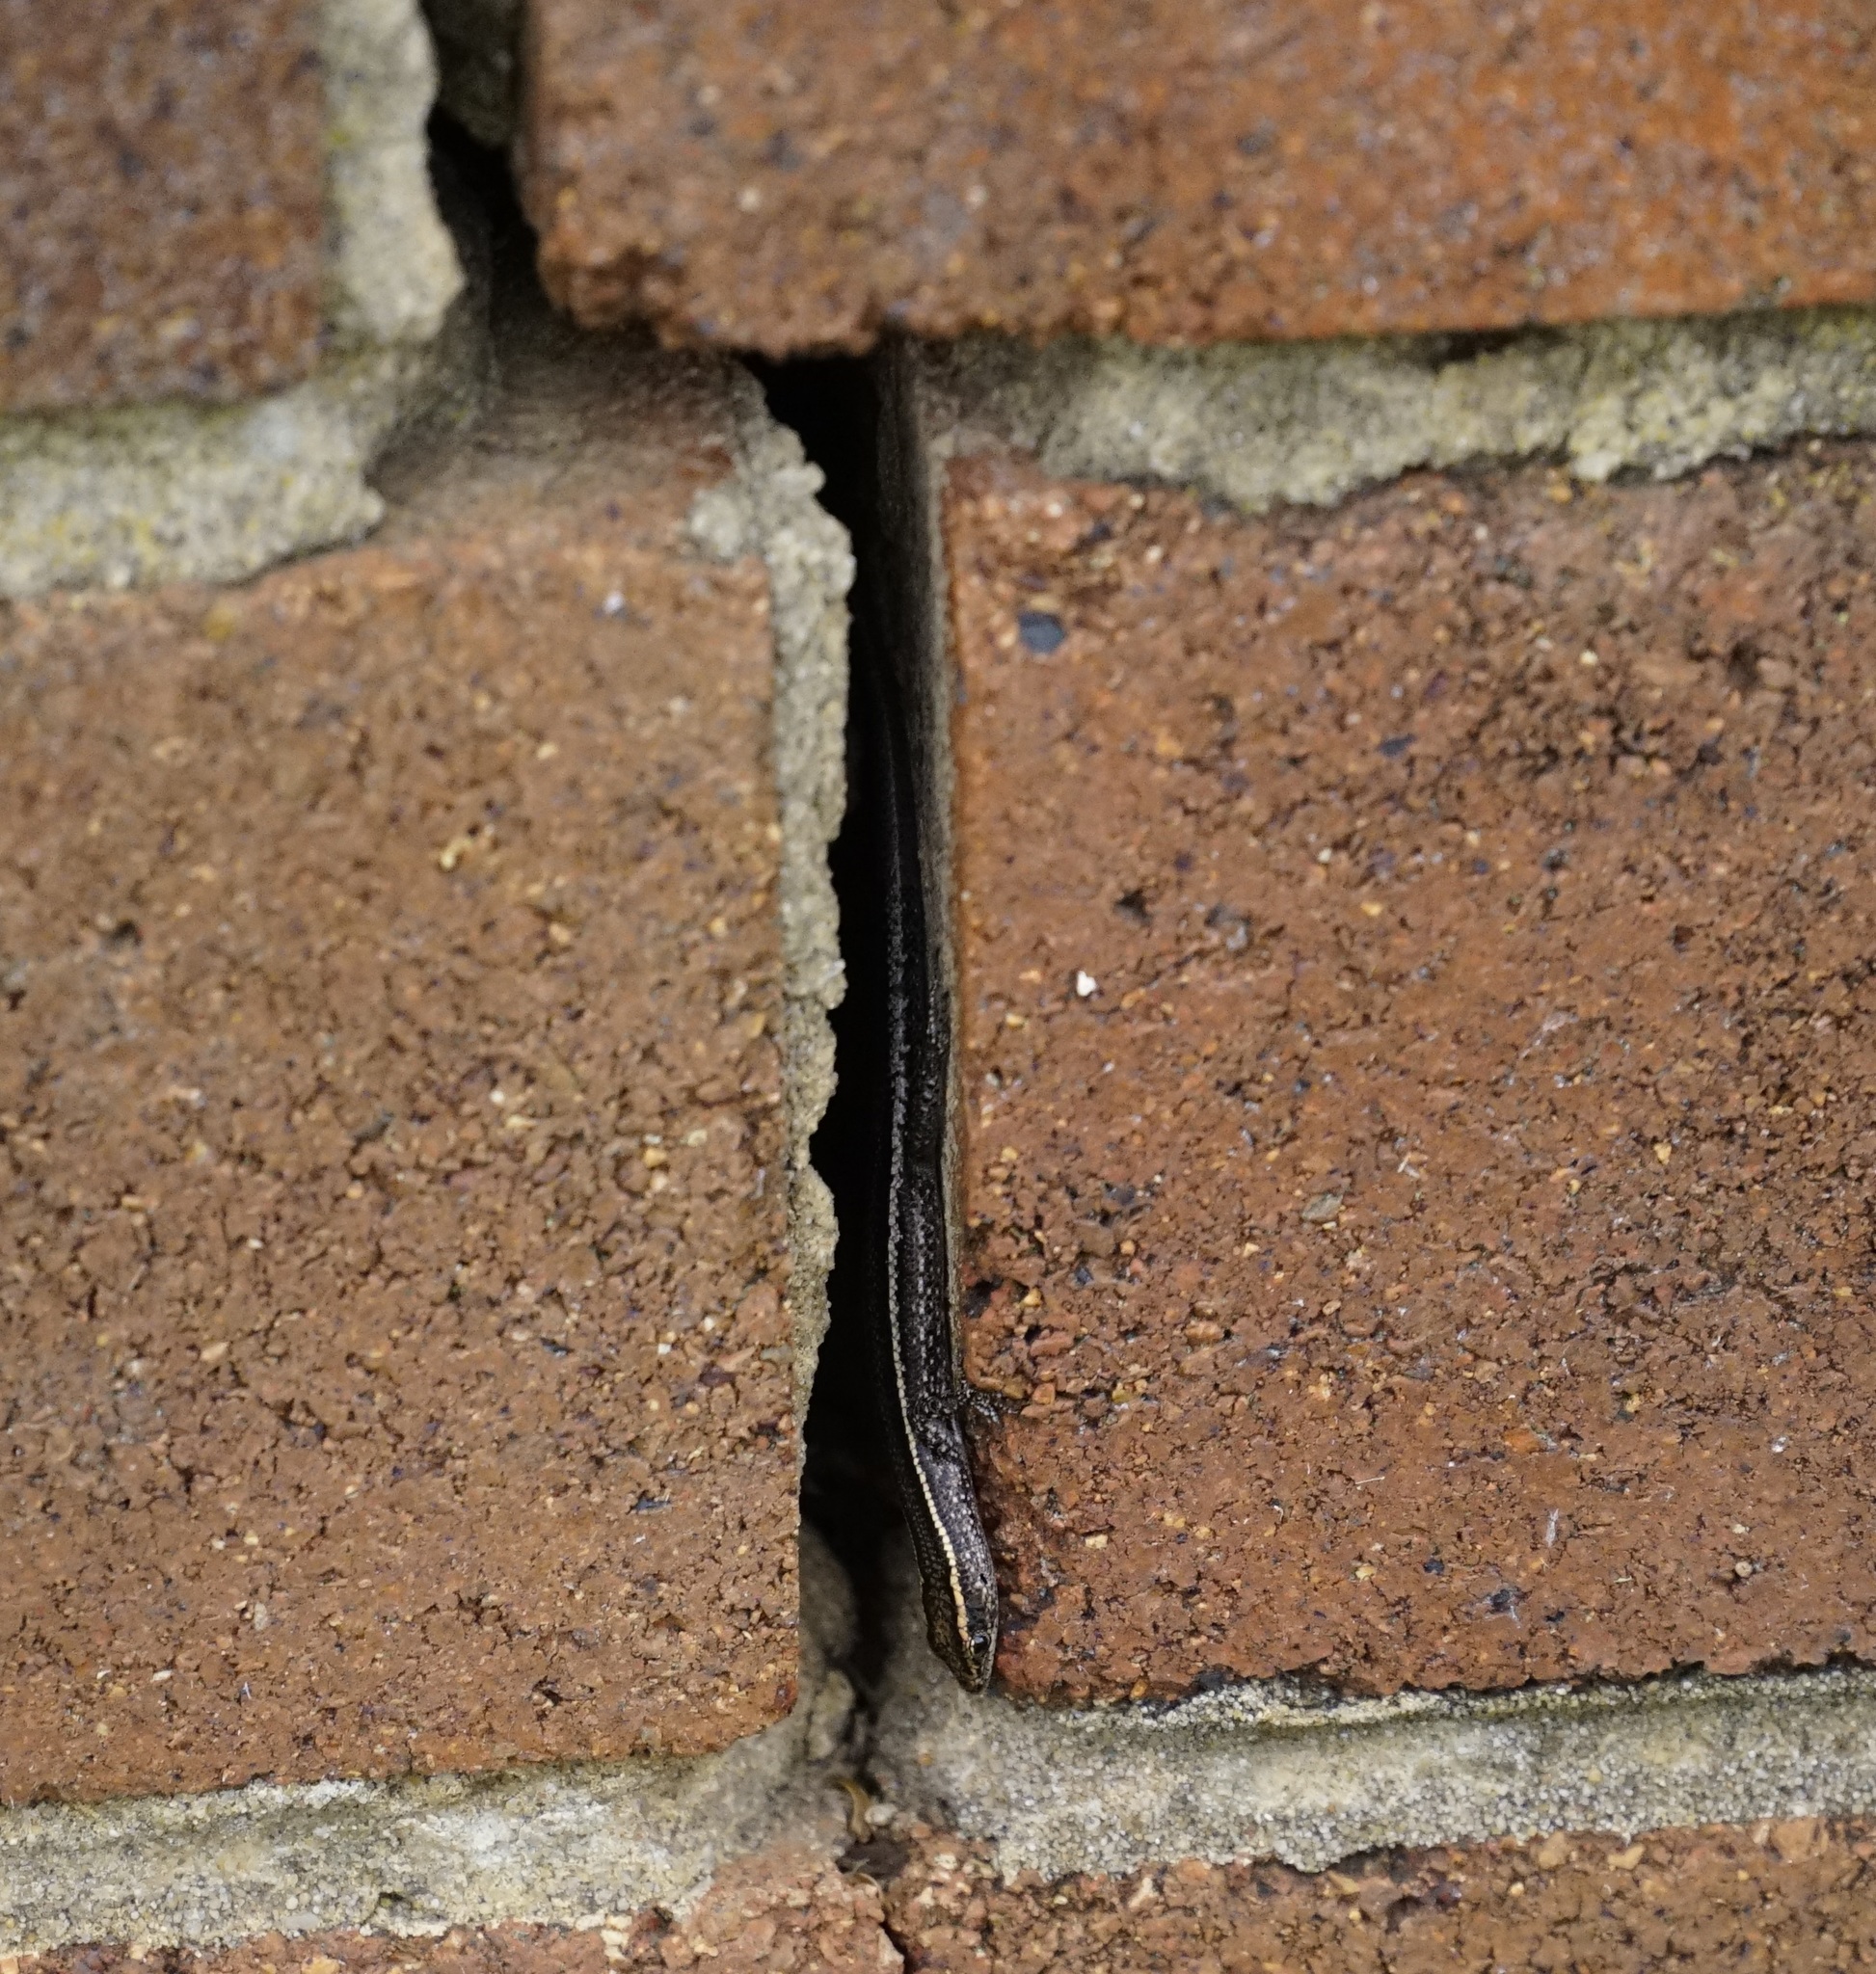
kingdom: Animalia
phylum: Chordata
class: Squamata
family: Scincidae
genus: Cryptoblepharus
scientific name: Cryptoblepharus pulcher
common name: Elegant snake-eyed skink
